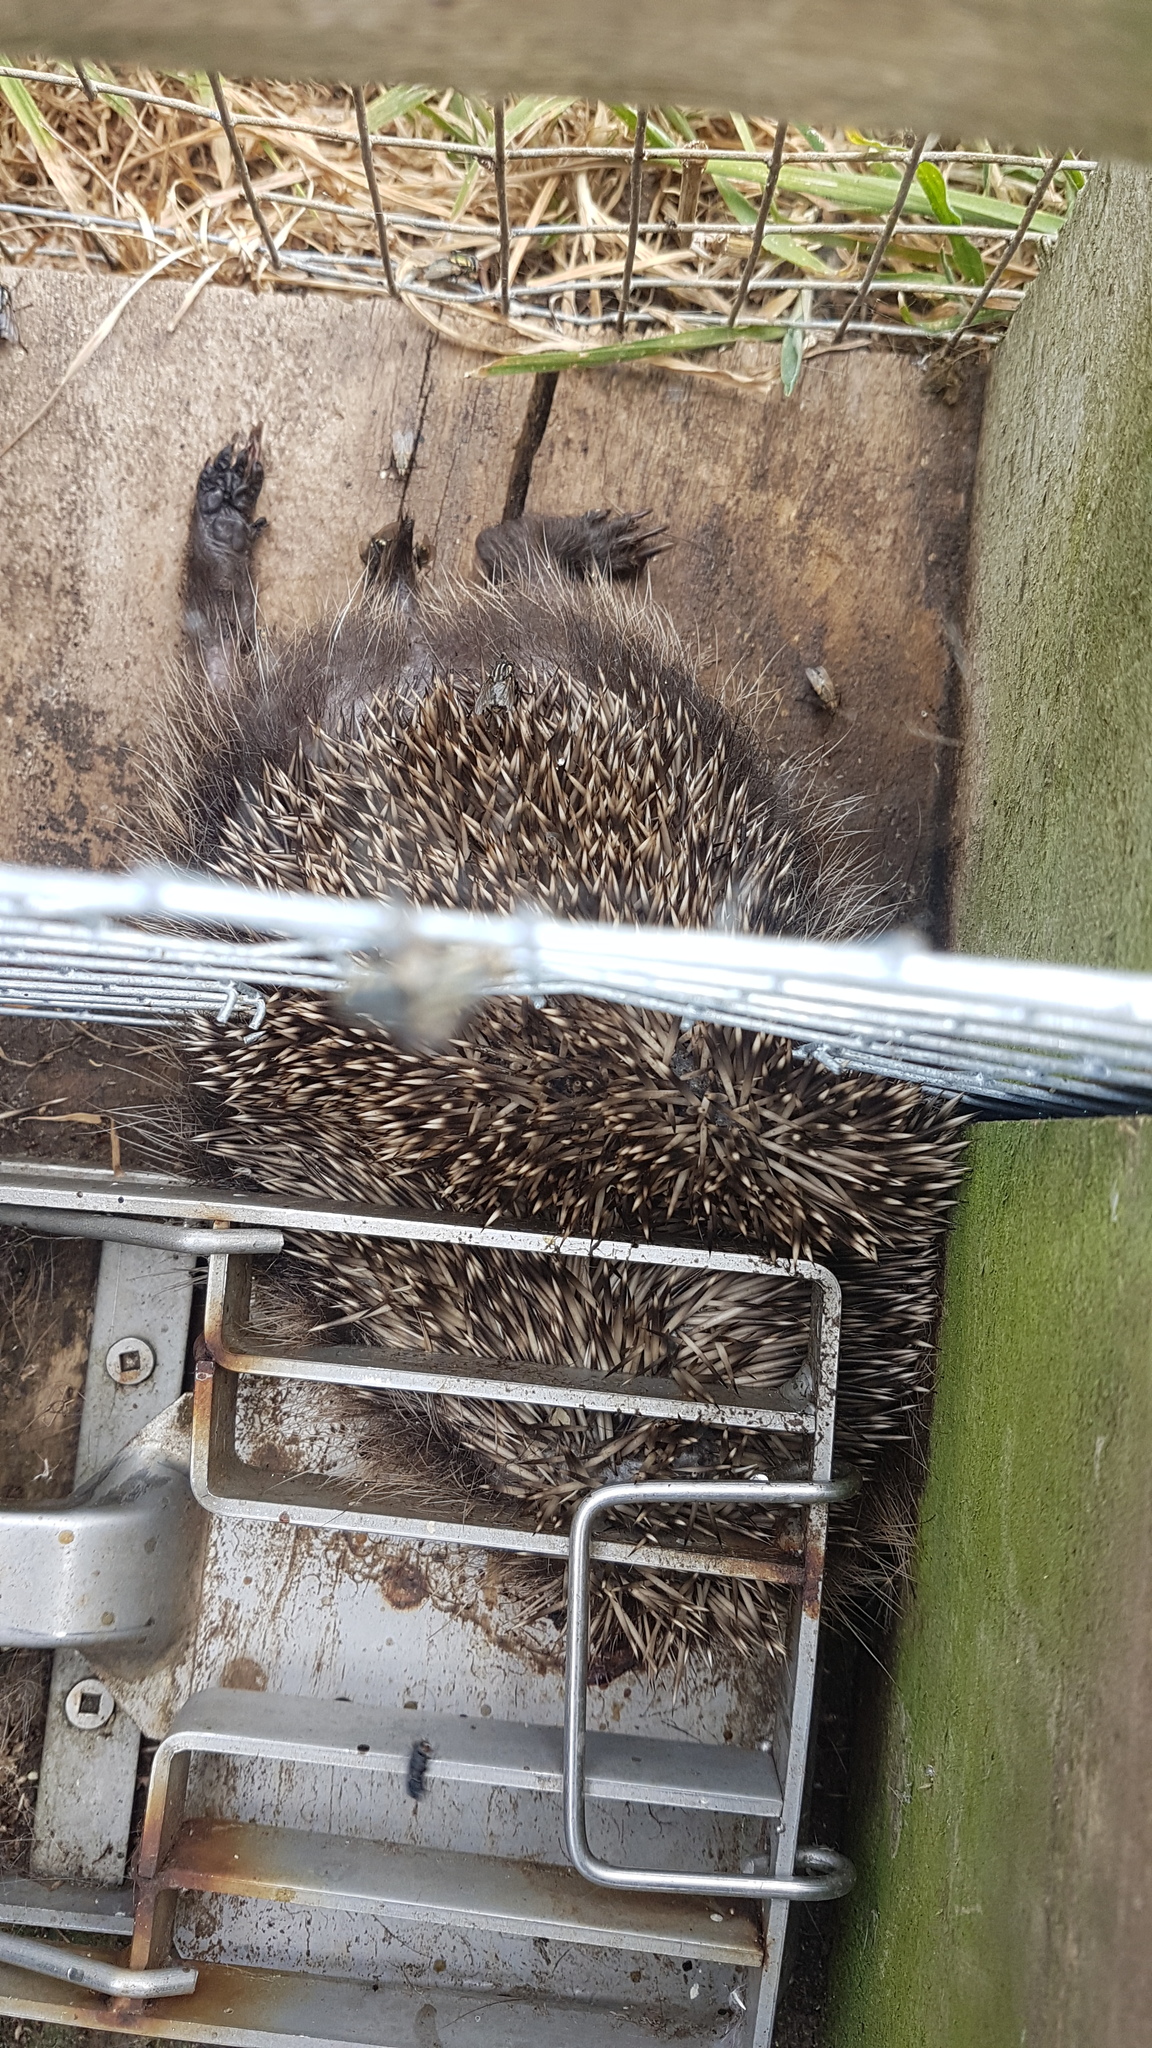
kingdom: Animalia
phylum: Chordata
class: Mammalia
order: Erinaceomorpha
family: Erinaceidae
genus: Erinaceus
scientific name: Erinaceus europaeus
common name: West european hedgehog
